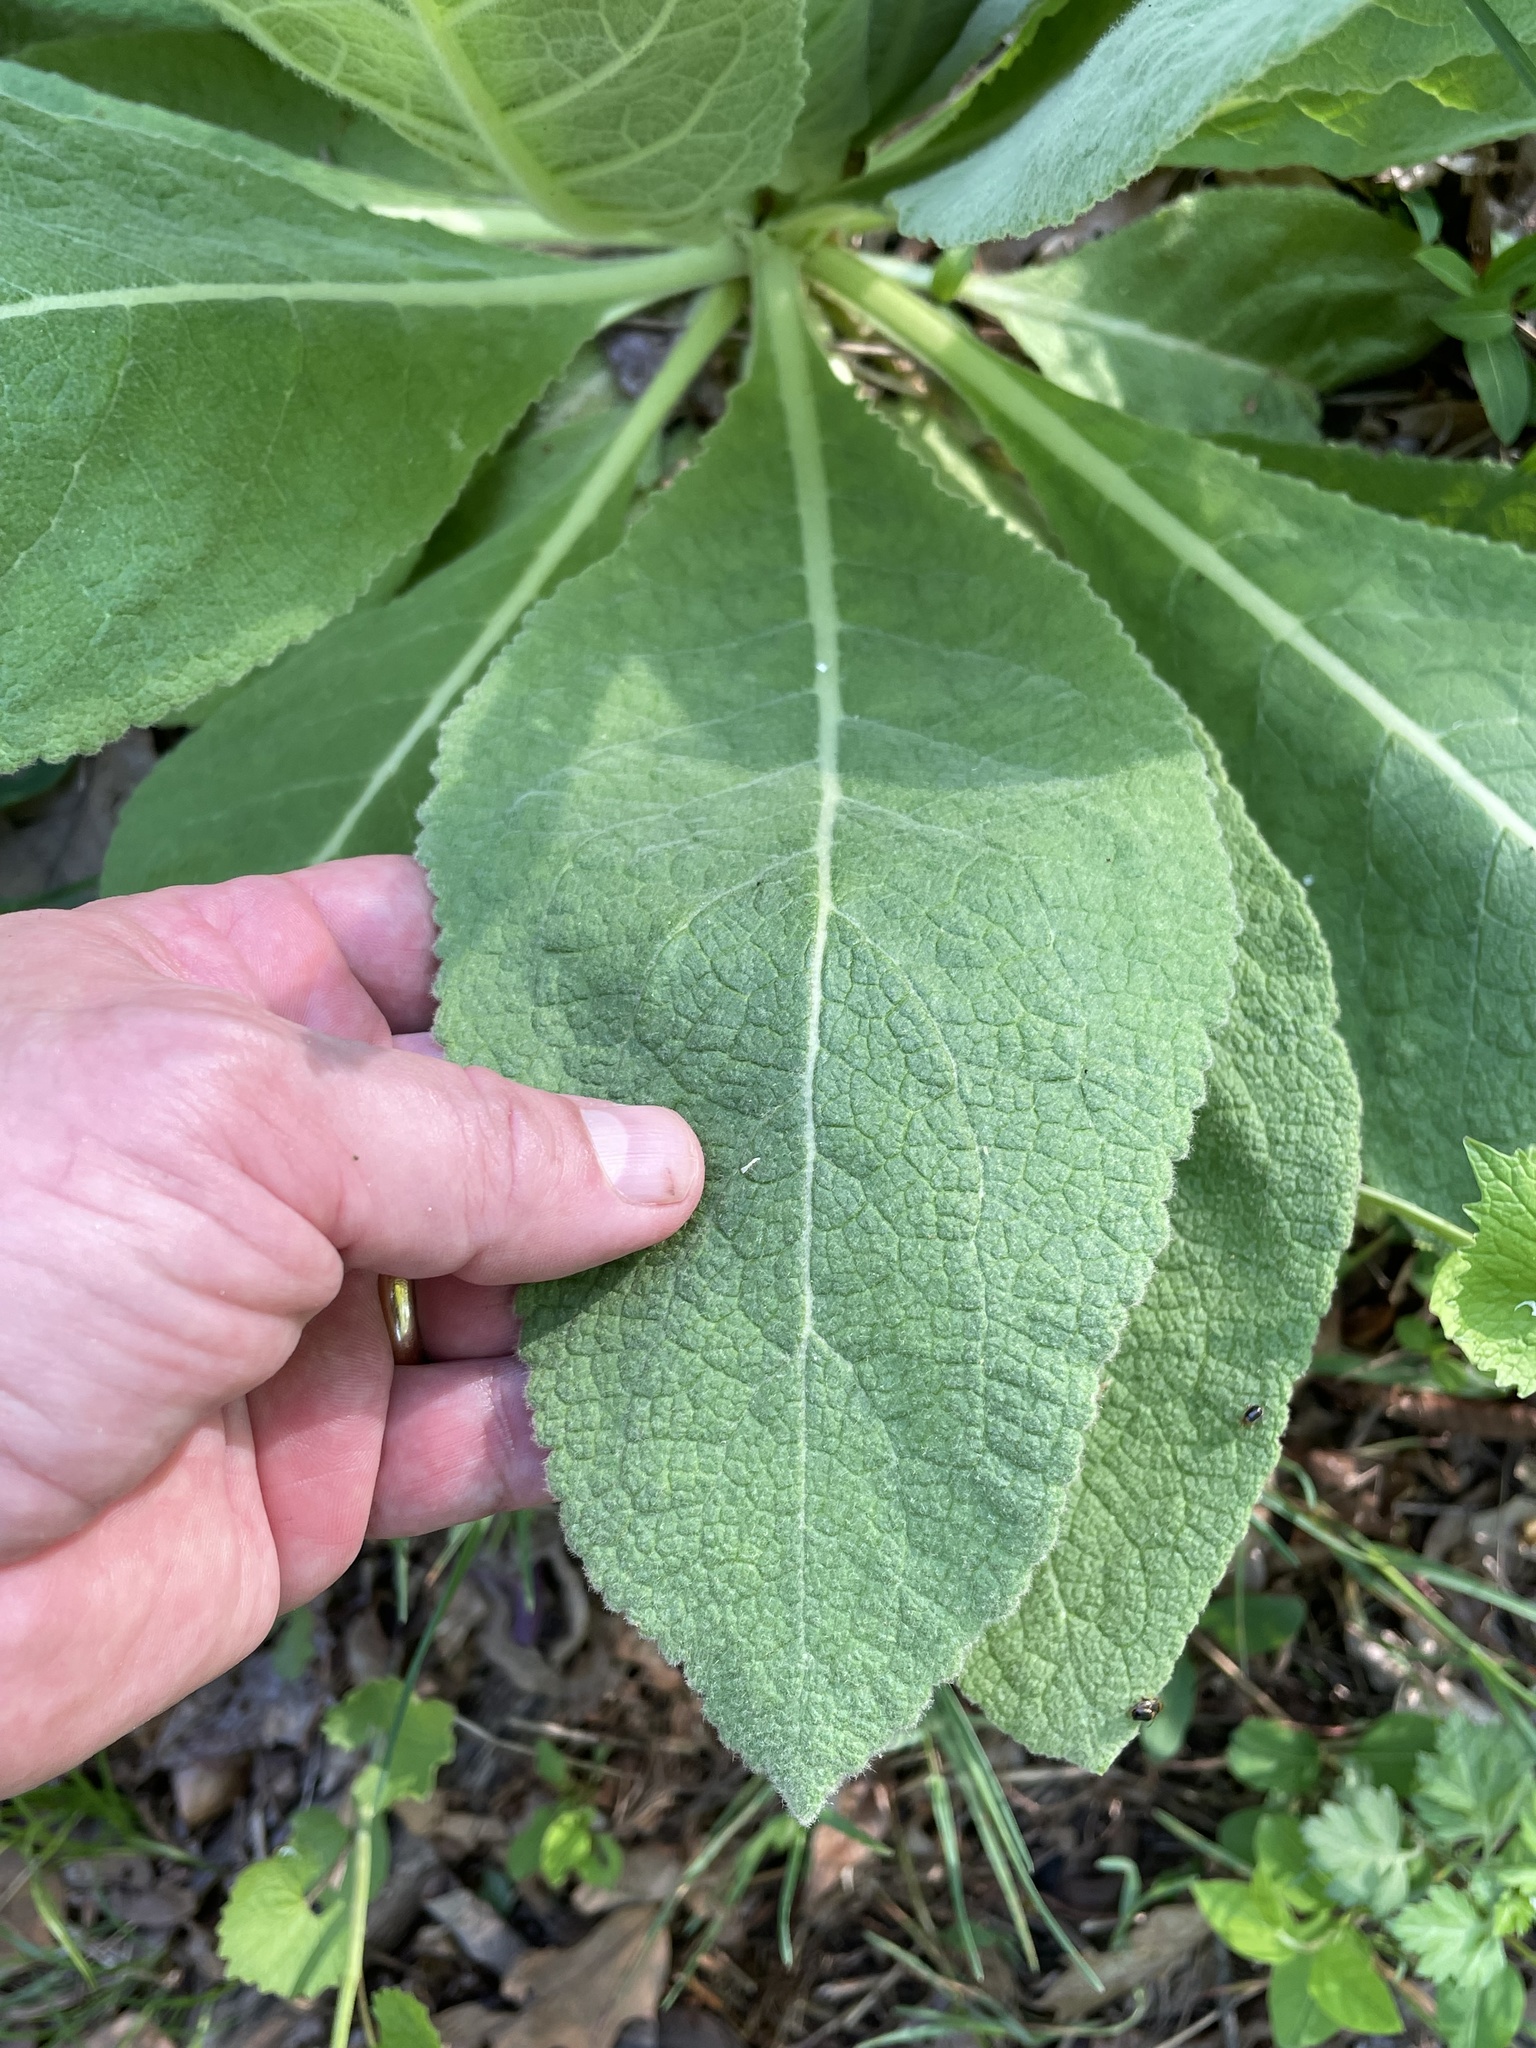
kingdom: Plantae
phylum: Tracheophyta
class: Magnoliopsida
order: Lamiales
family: Scrophulariaceae
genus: Verbascum
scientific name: Verbascum thapsus
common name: Common mullein
